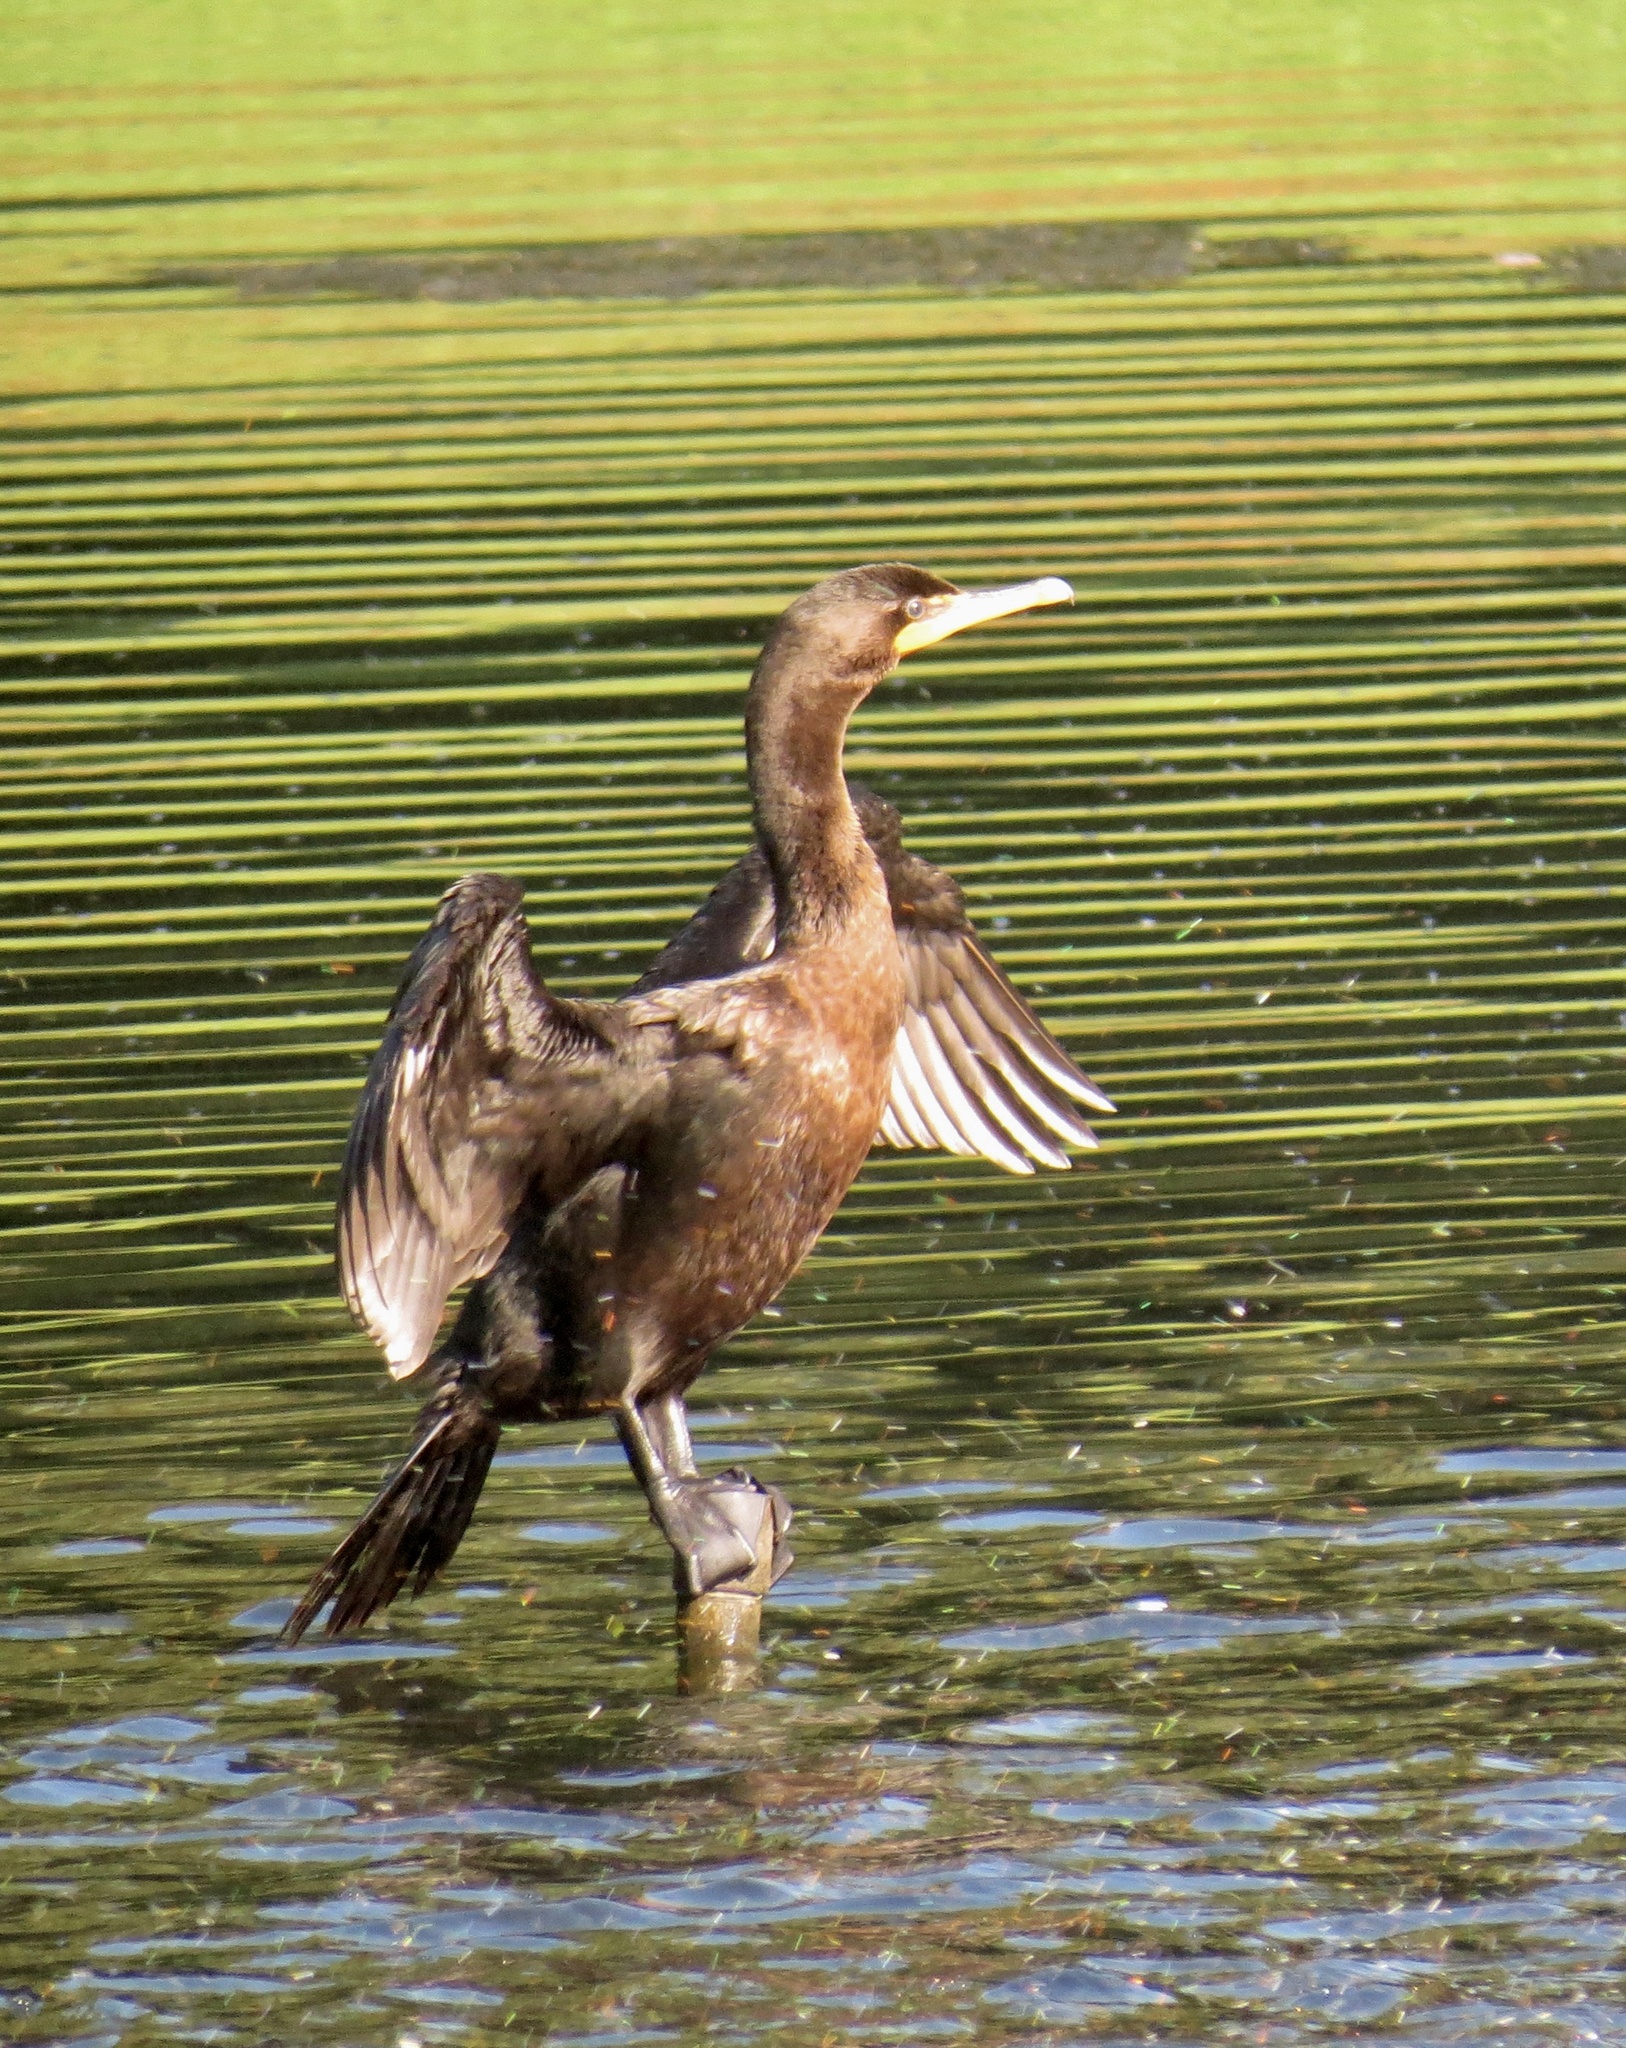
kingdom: Animalia
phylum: Chordata
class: Aves
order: Suliformes
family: Phalacrocoracidae
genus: Phalacrocorax
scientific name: Phalacrocorax auritus
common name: Double-crested cormorant
